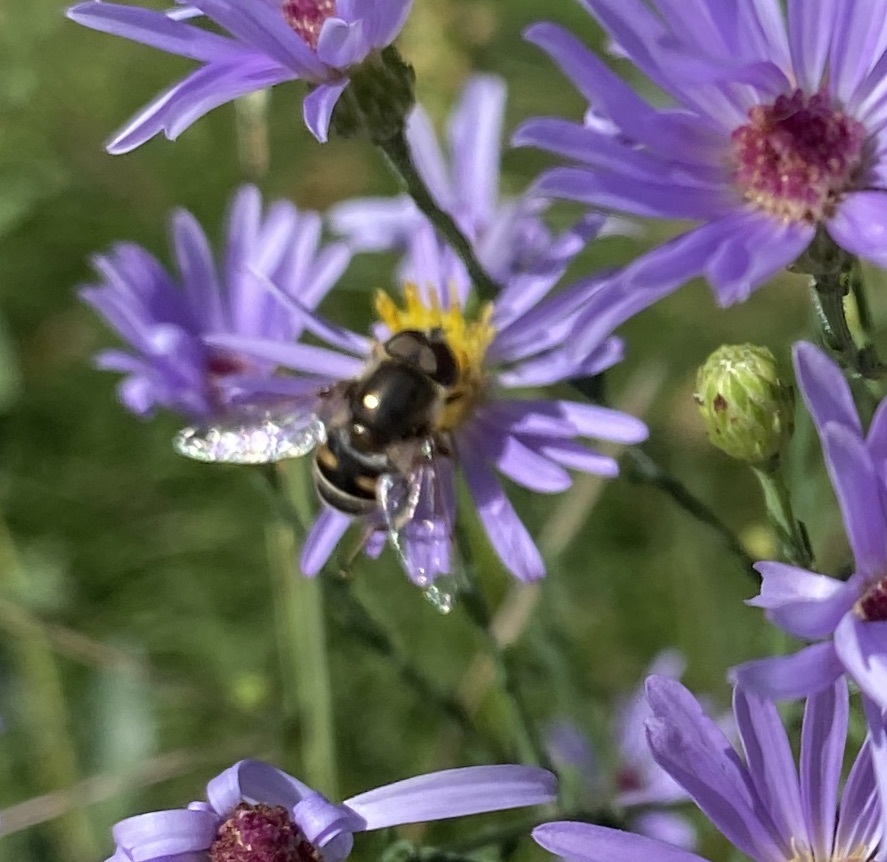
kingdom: Animalia
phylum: Arthropoda
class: Insecta
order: Diptera
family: Syrphidae
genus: Eristalis
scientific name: Eristalis dimidiata
